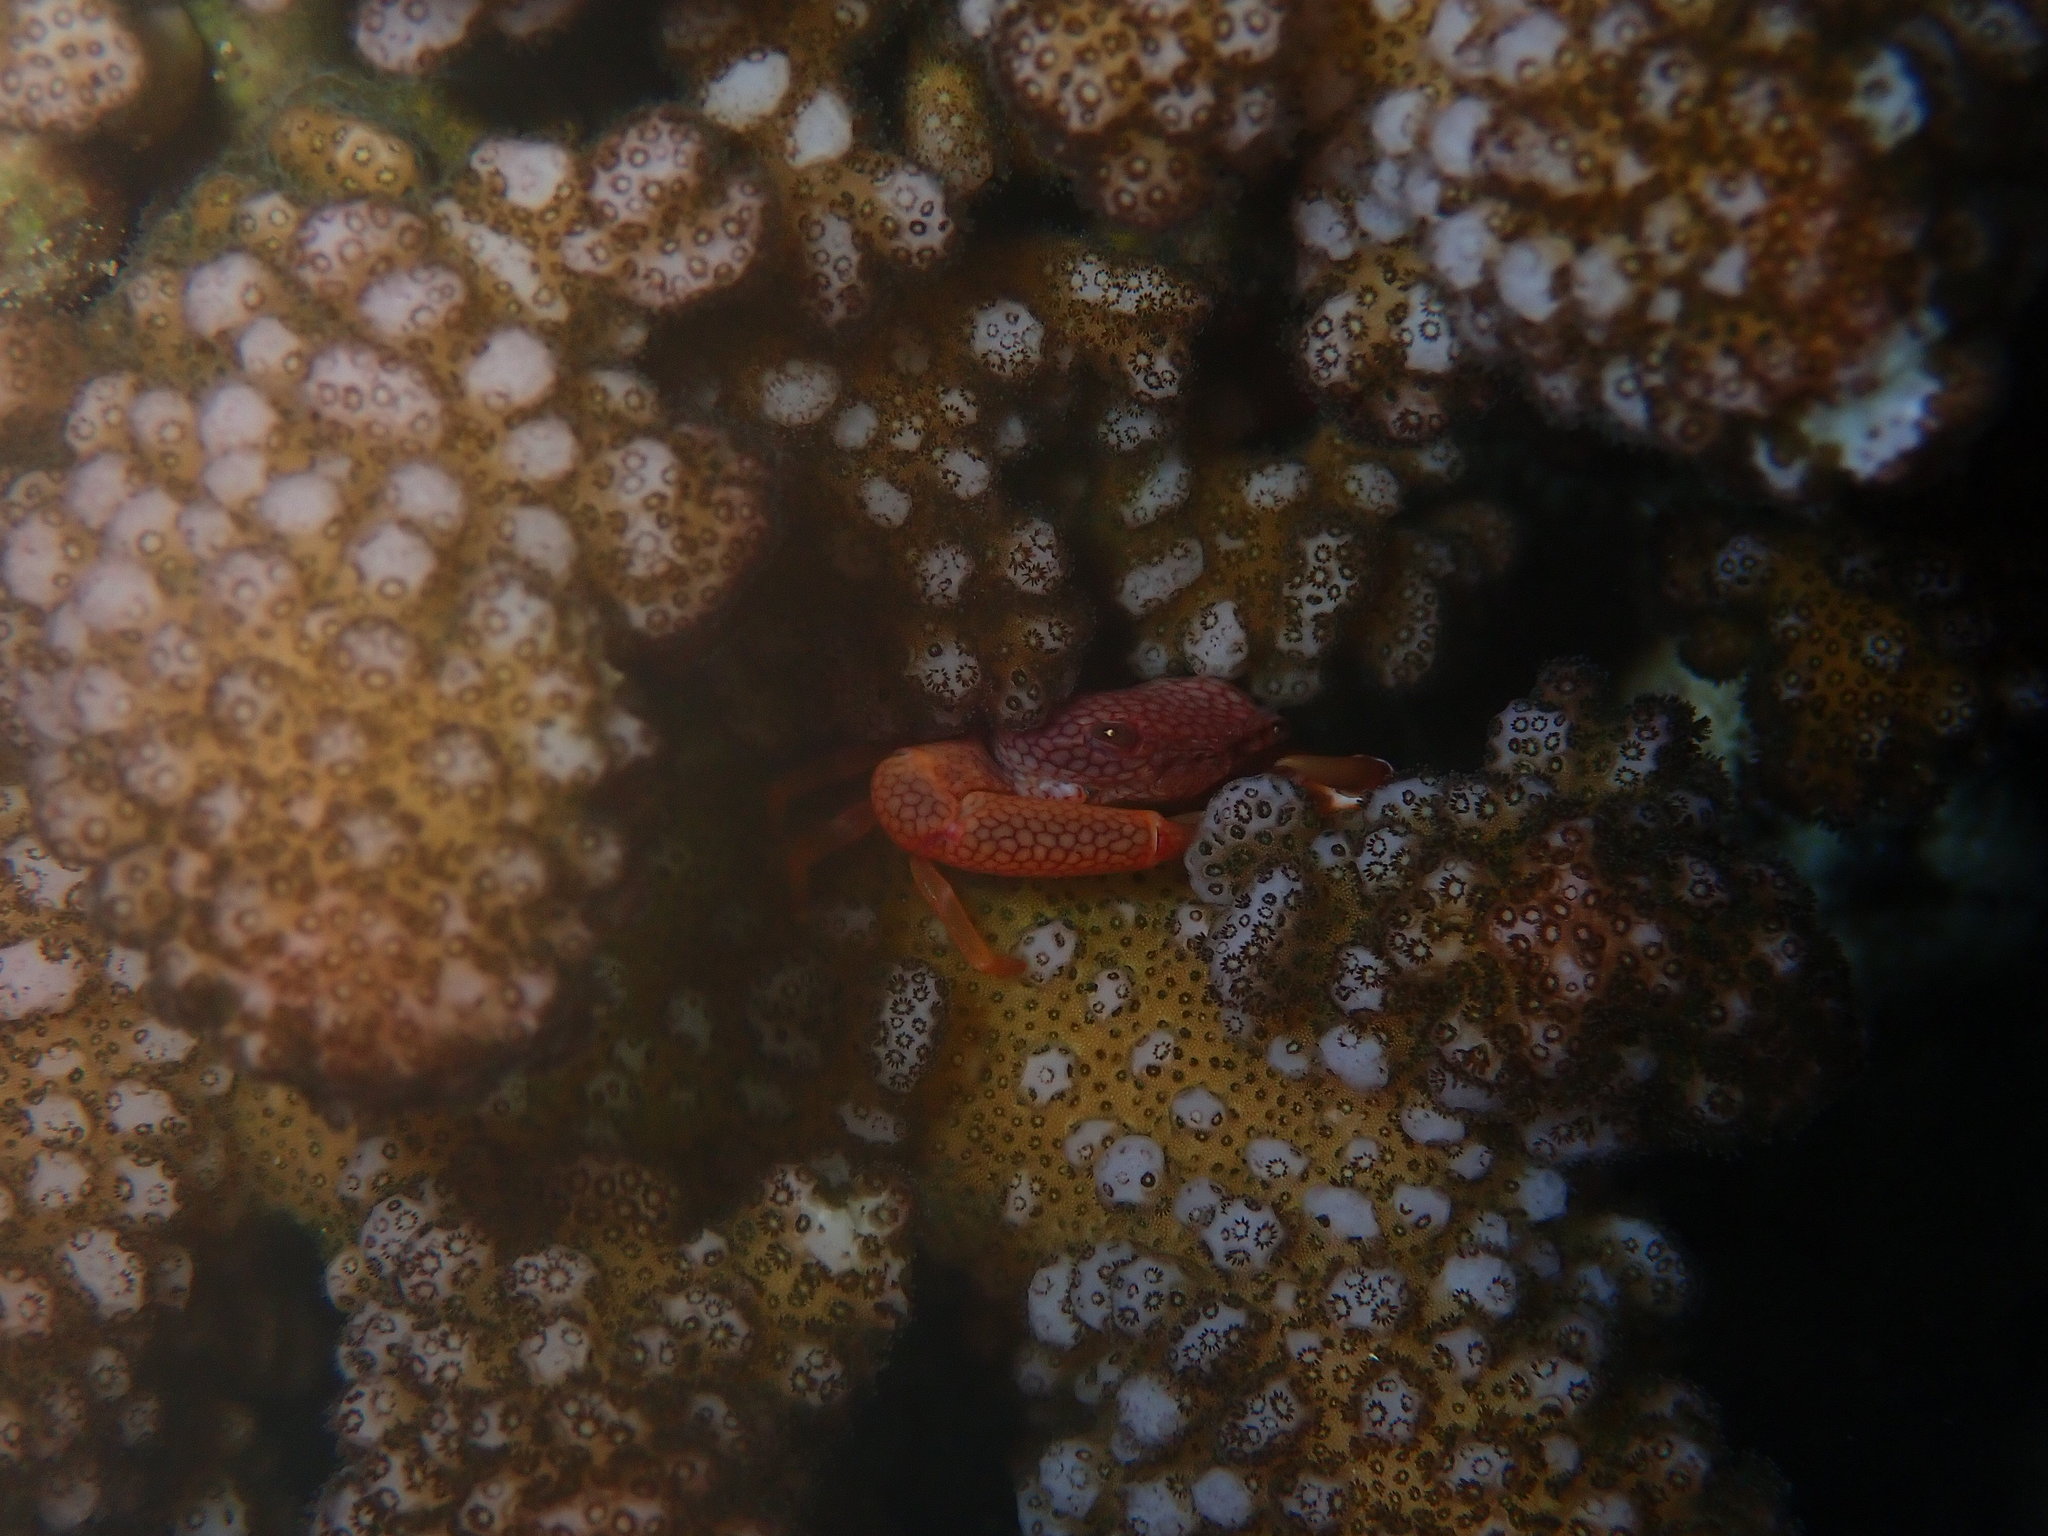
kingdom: Animalia
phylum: Arthropoda
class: Malacostraca
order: Decapoda
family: Trapeziidae
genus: Trapezia
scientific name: Trapezia septata
